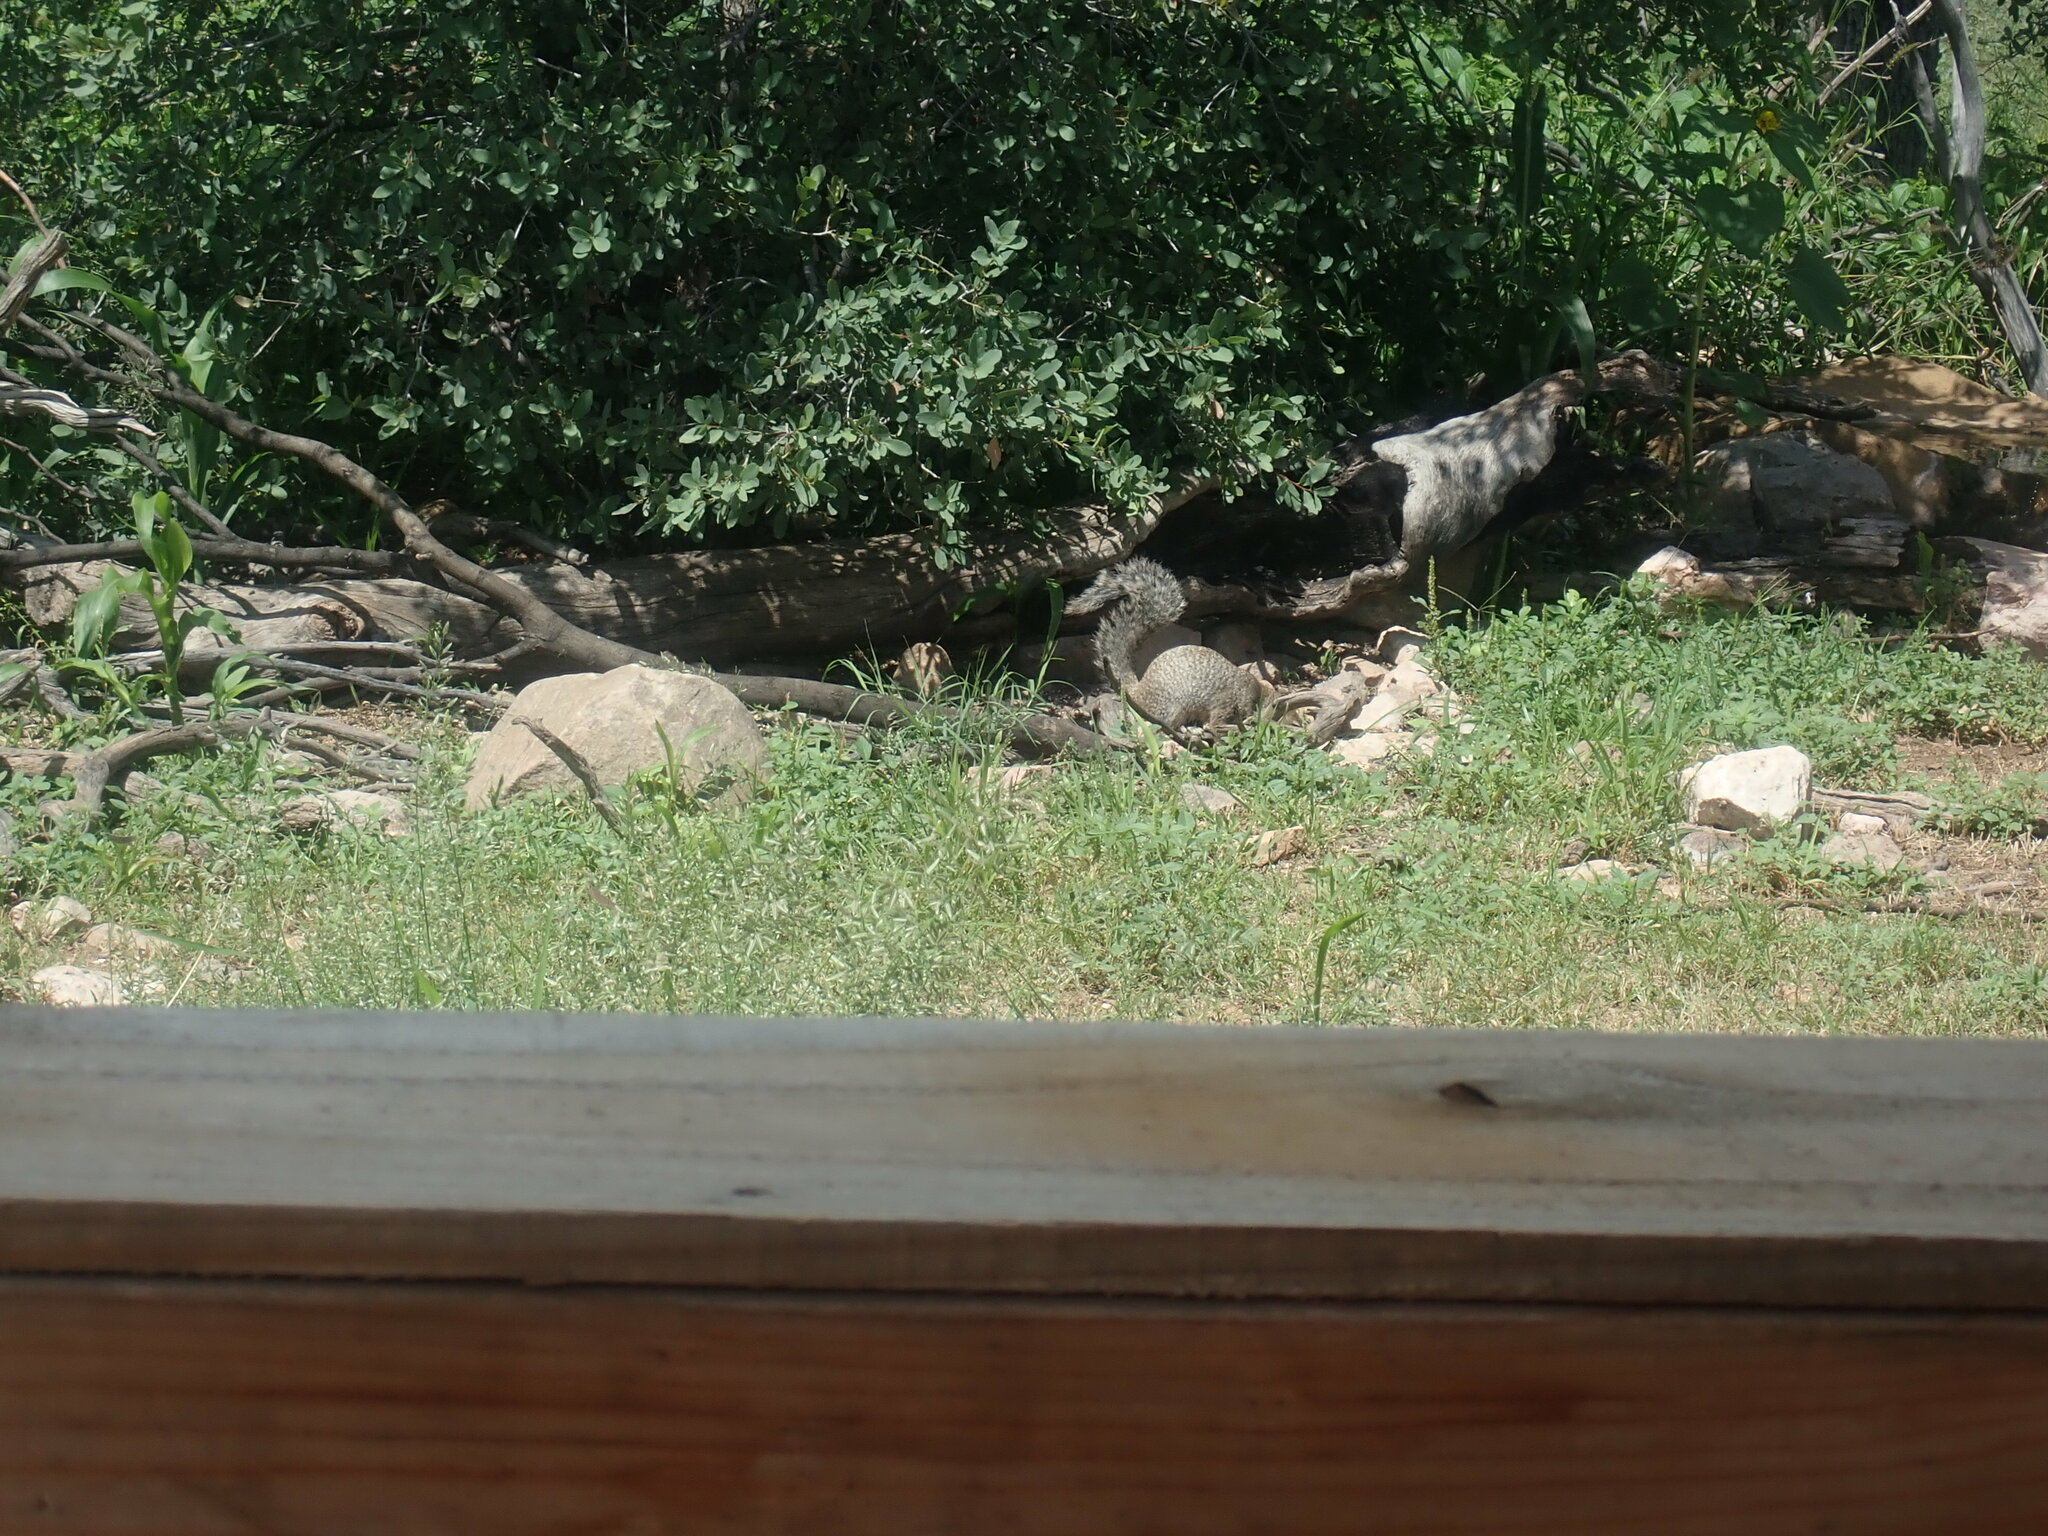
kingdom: Animalia
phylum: Chordata
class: Mammalia
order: Rodentia
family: Sciuridae
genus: Otospermophilus
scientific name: Otospermophilus variegatus
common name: Rock squirrel
